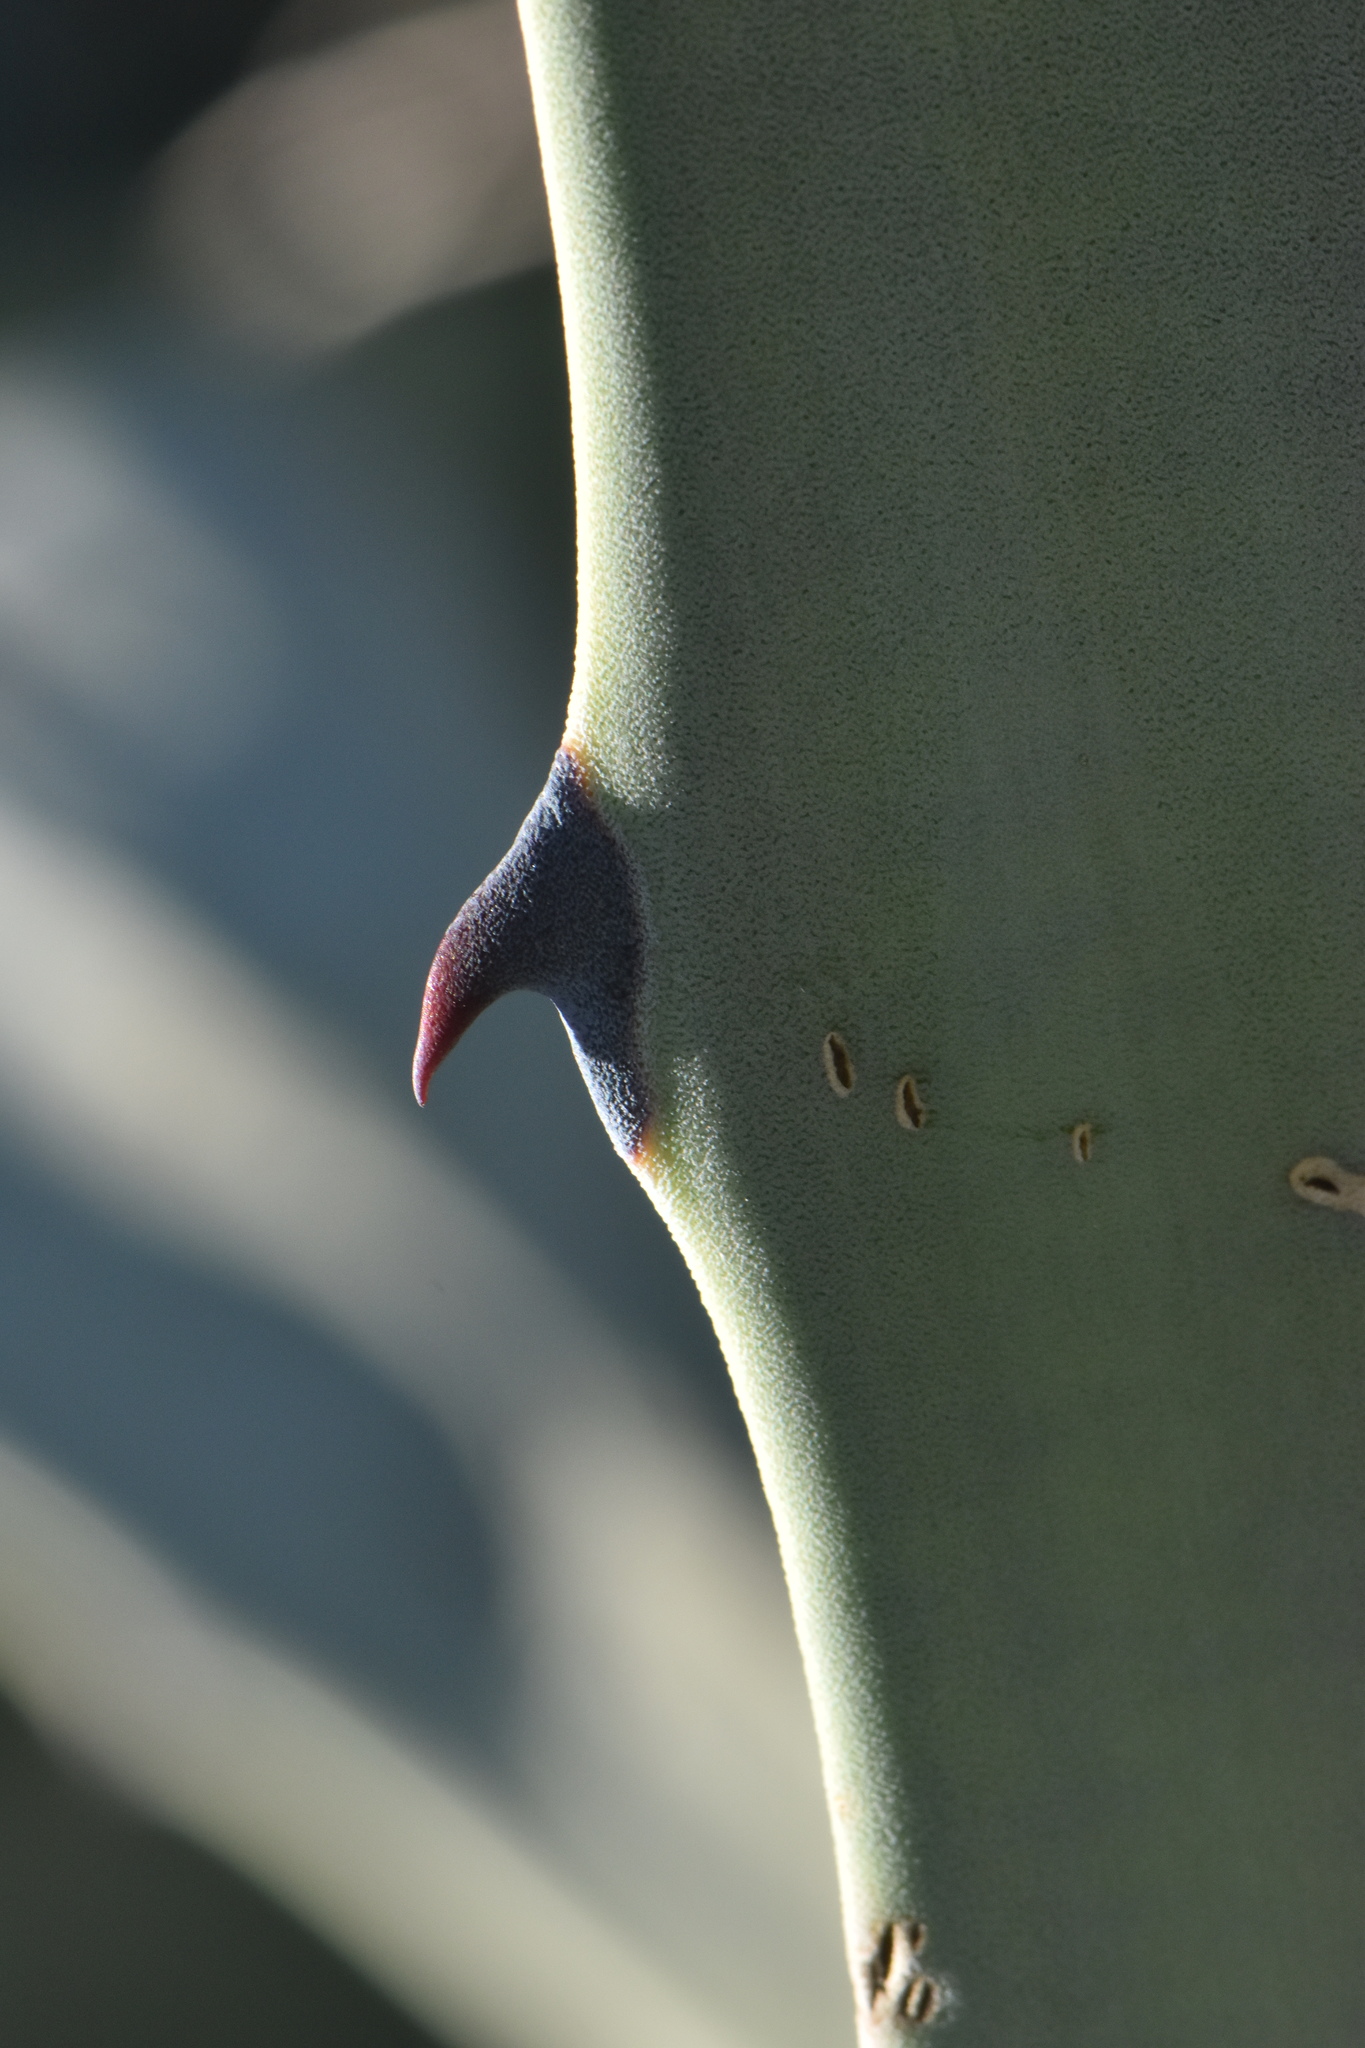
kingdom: Plantae
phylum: Tracheophyta
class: Liliopsida
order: Asparagales
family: Asparagaceae
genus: Agave
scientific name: Agave americana
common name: Centuryplant
